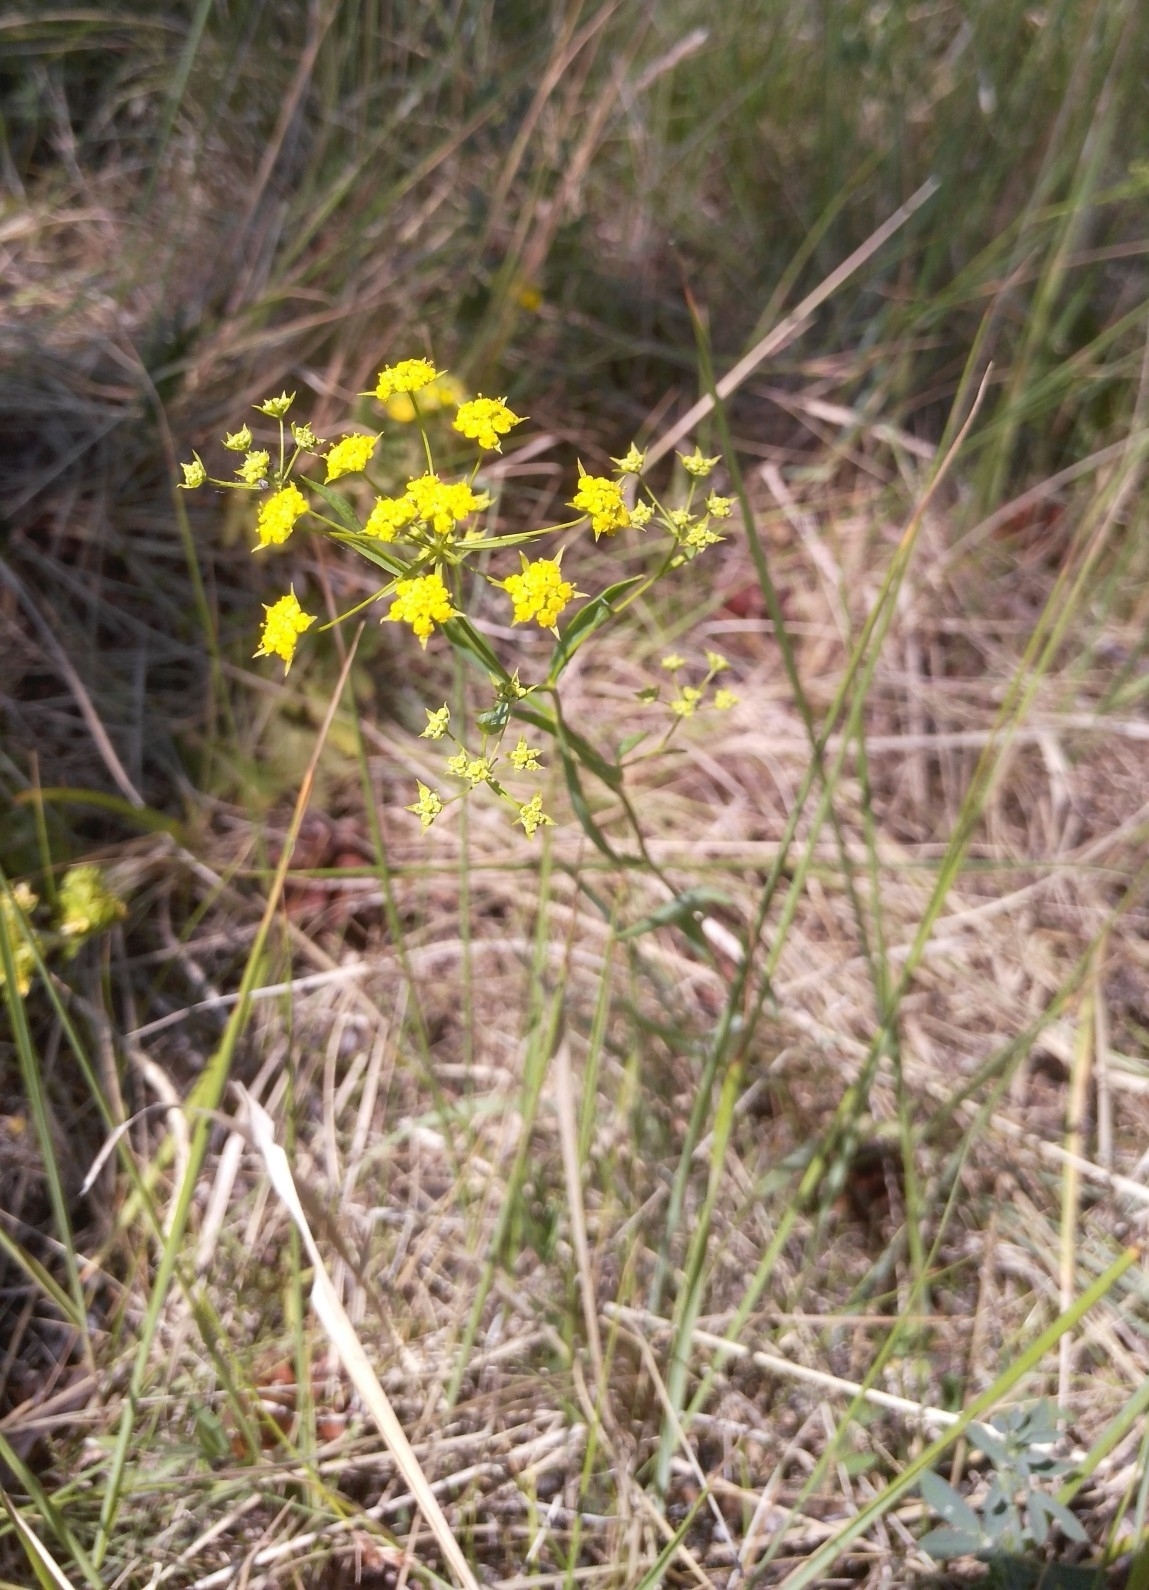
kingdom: Plantae
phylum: Tracheophyta
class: Magnoliopsida
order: Apiales
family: Apiaceae
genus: Bupleurum
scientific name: Bupleurum scorzonerifolium
